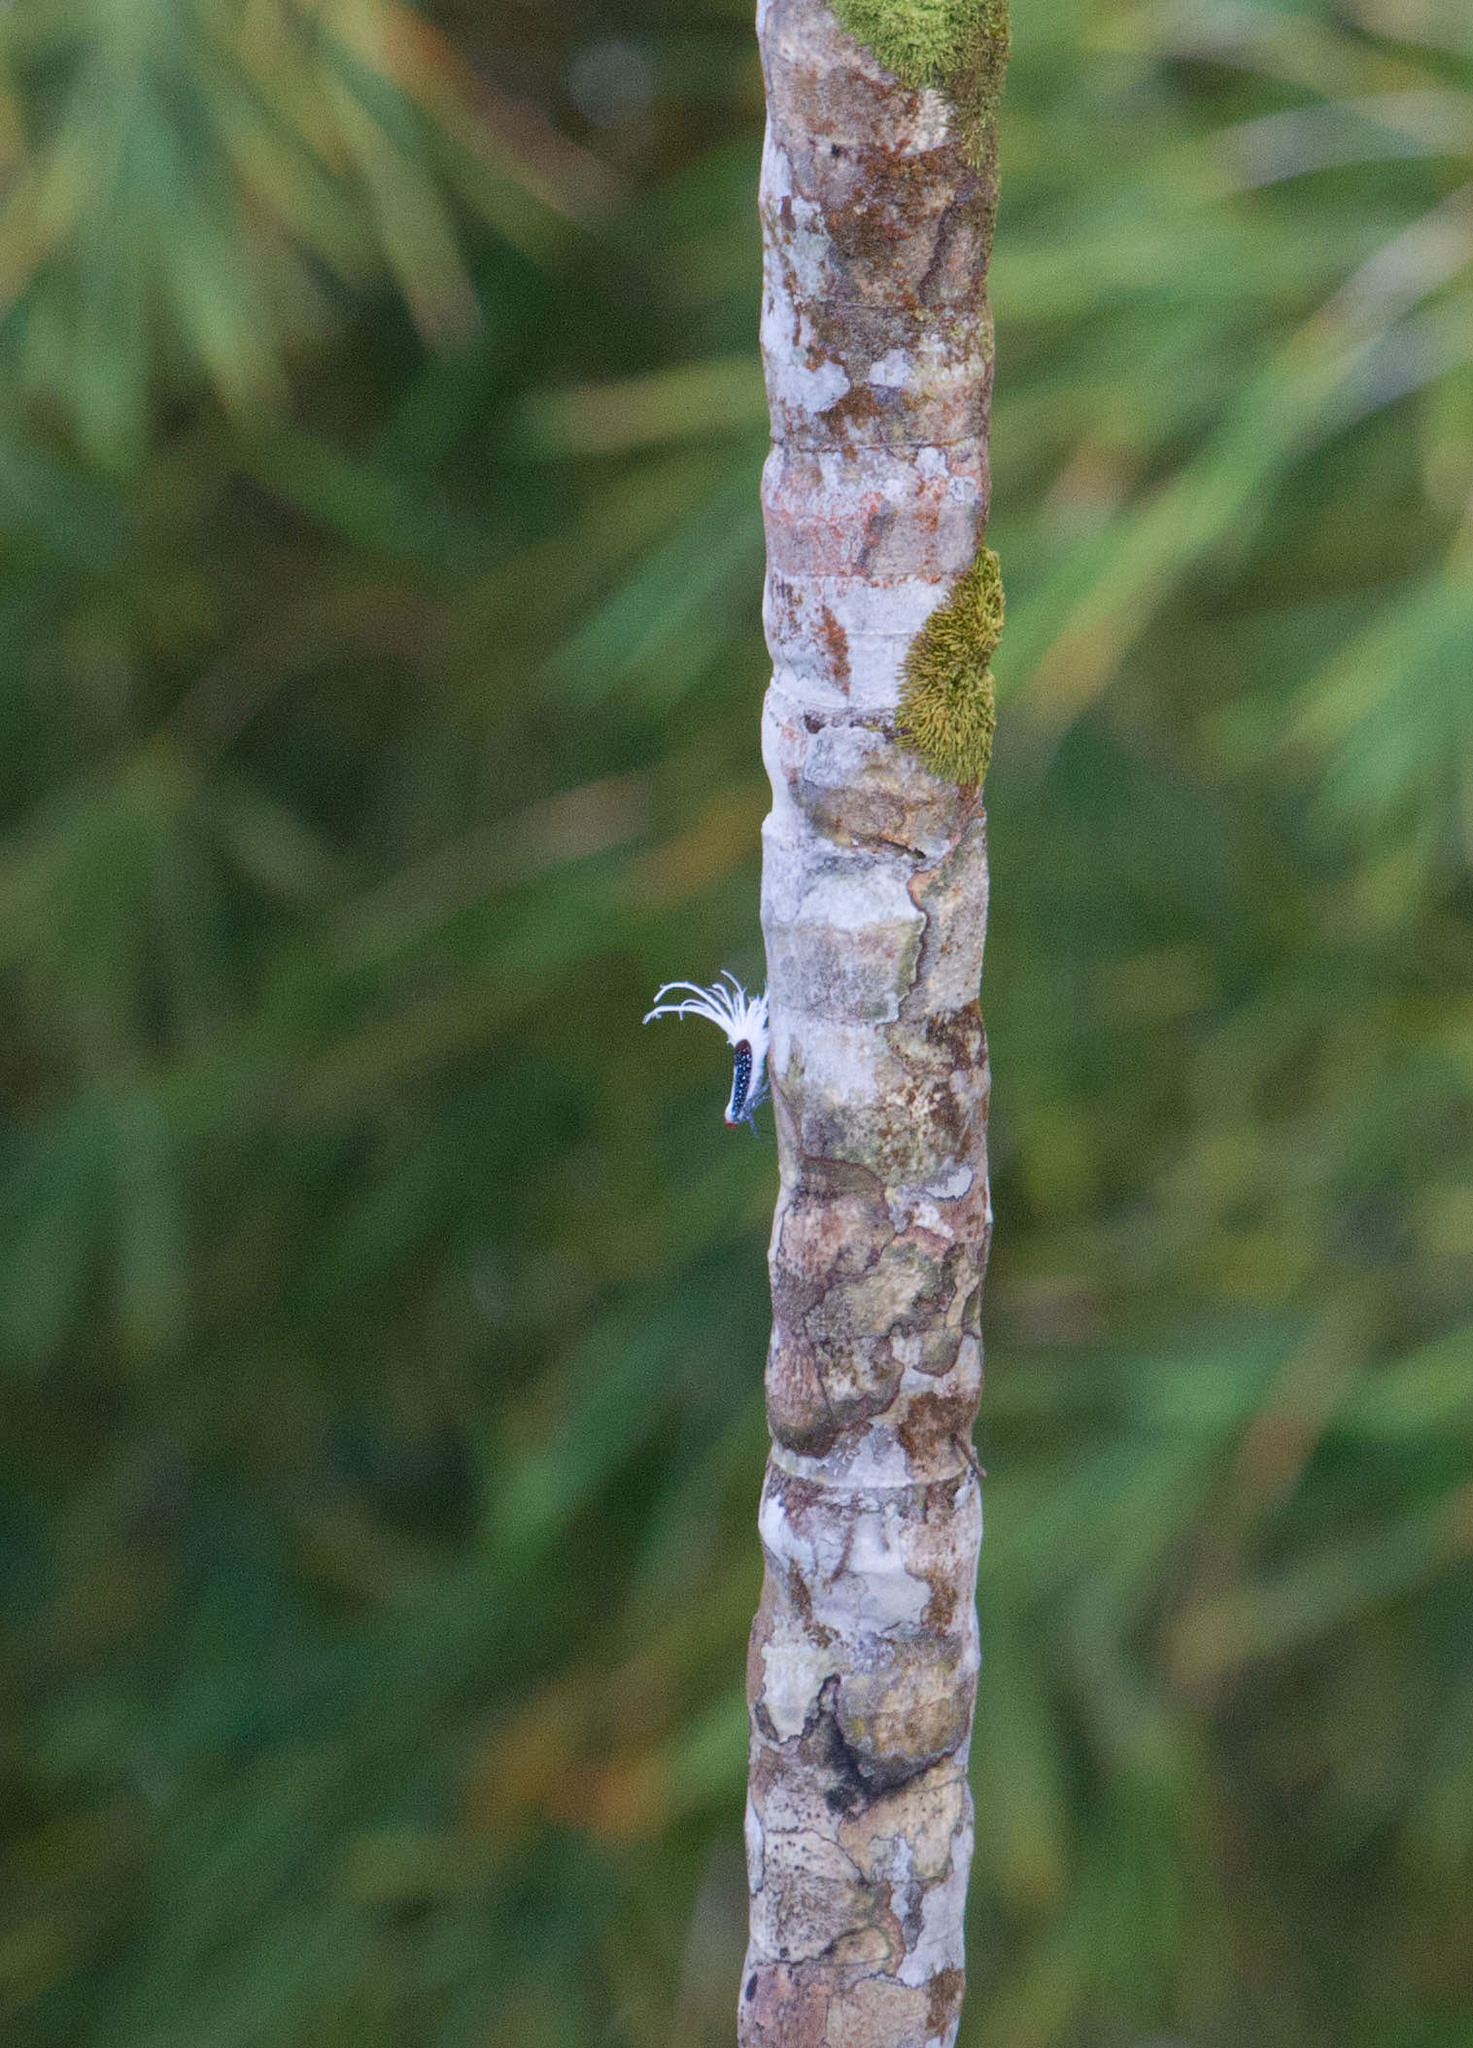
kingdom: Animalia
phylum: Arthropoda
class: Insecta
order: Hemiptera
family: Fulgoridae
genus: Lystra
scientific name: Lystra lanata
